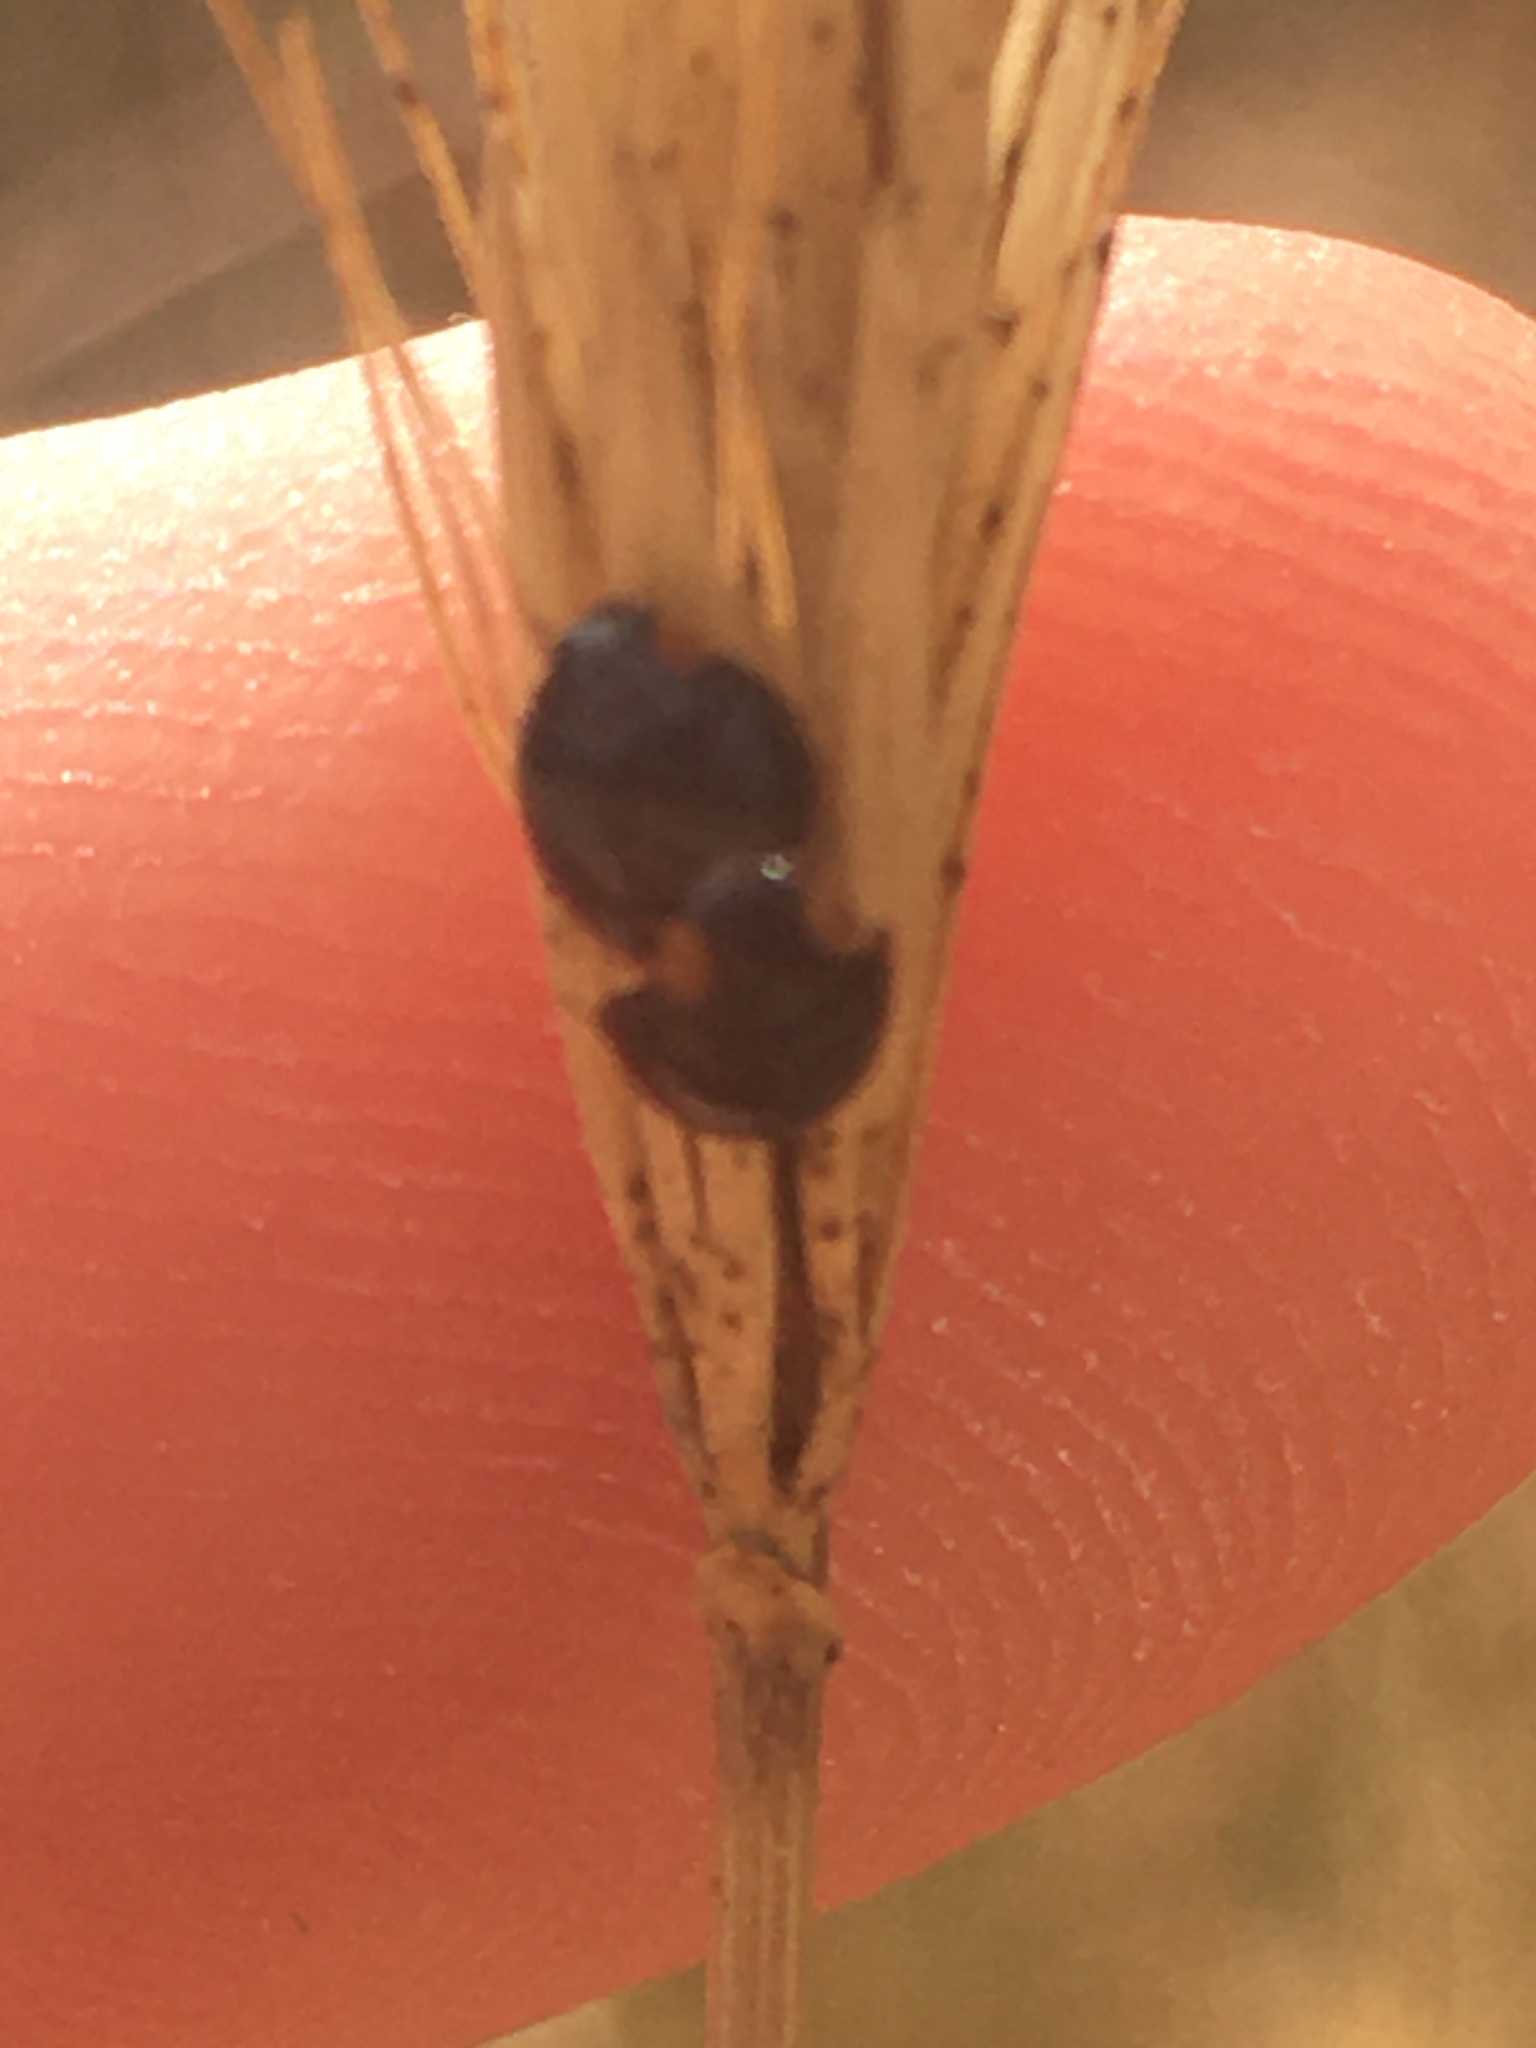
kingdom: Animalia
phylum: Arthropoda
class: Insecta
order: Coleoptera
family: Coccinellidae
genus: Parexochomus
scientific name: Parexochomus nigromaculatus
